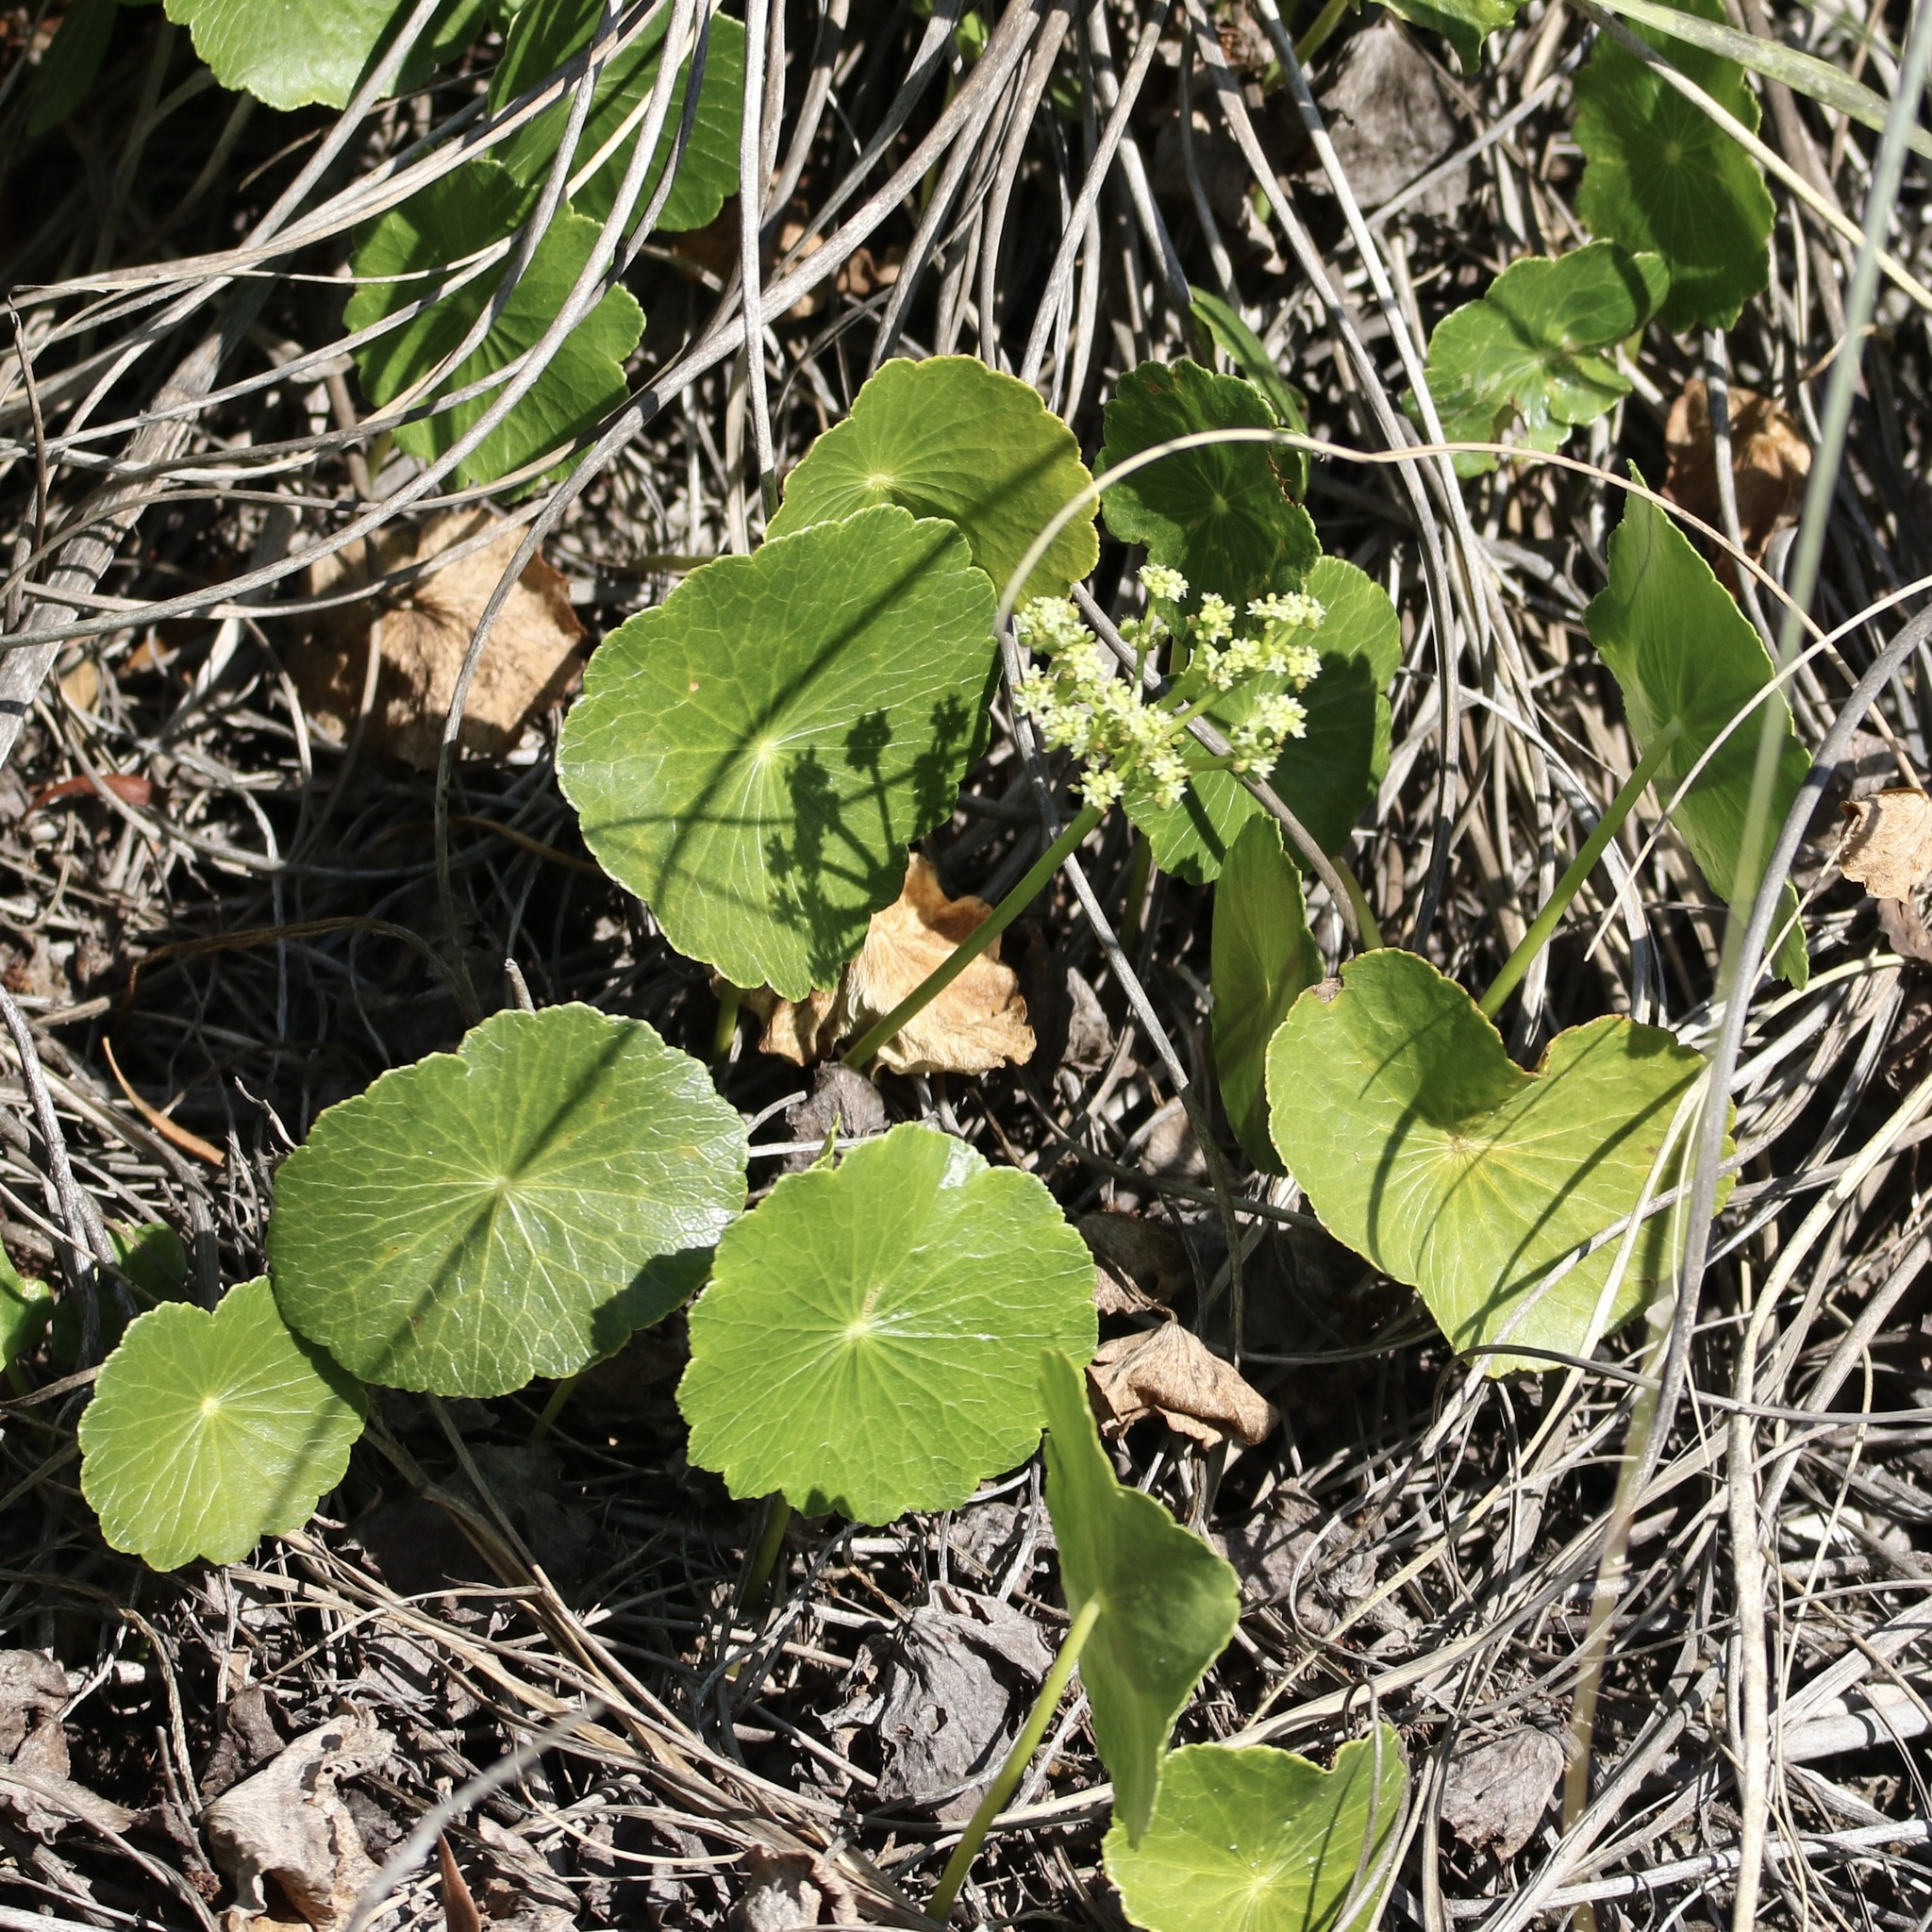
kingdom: Plantae
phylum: Tracheophyta
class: Magnoliopsida
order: Apiales
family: Araliaceae
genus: Hydrocotyle
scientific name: Hydrocotyle bonariensis
